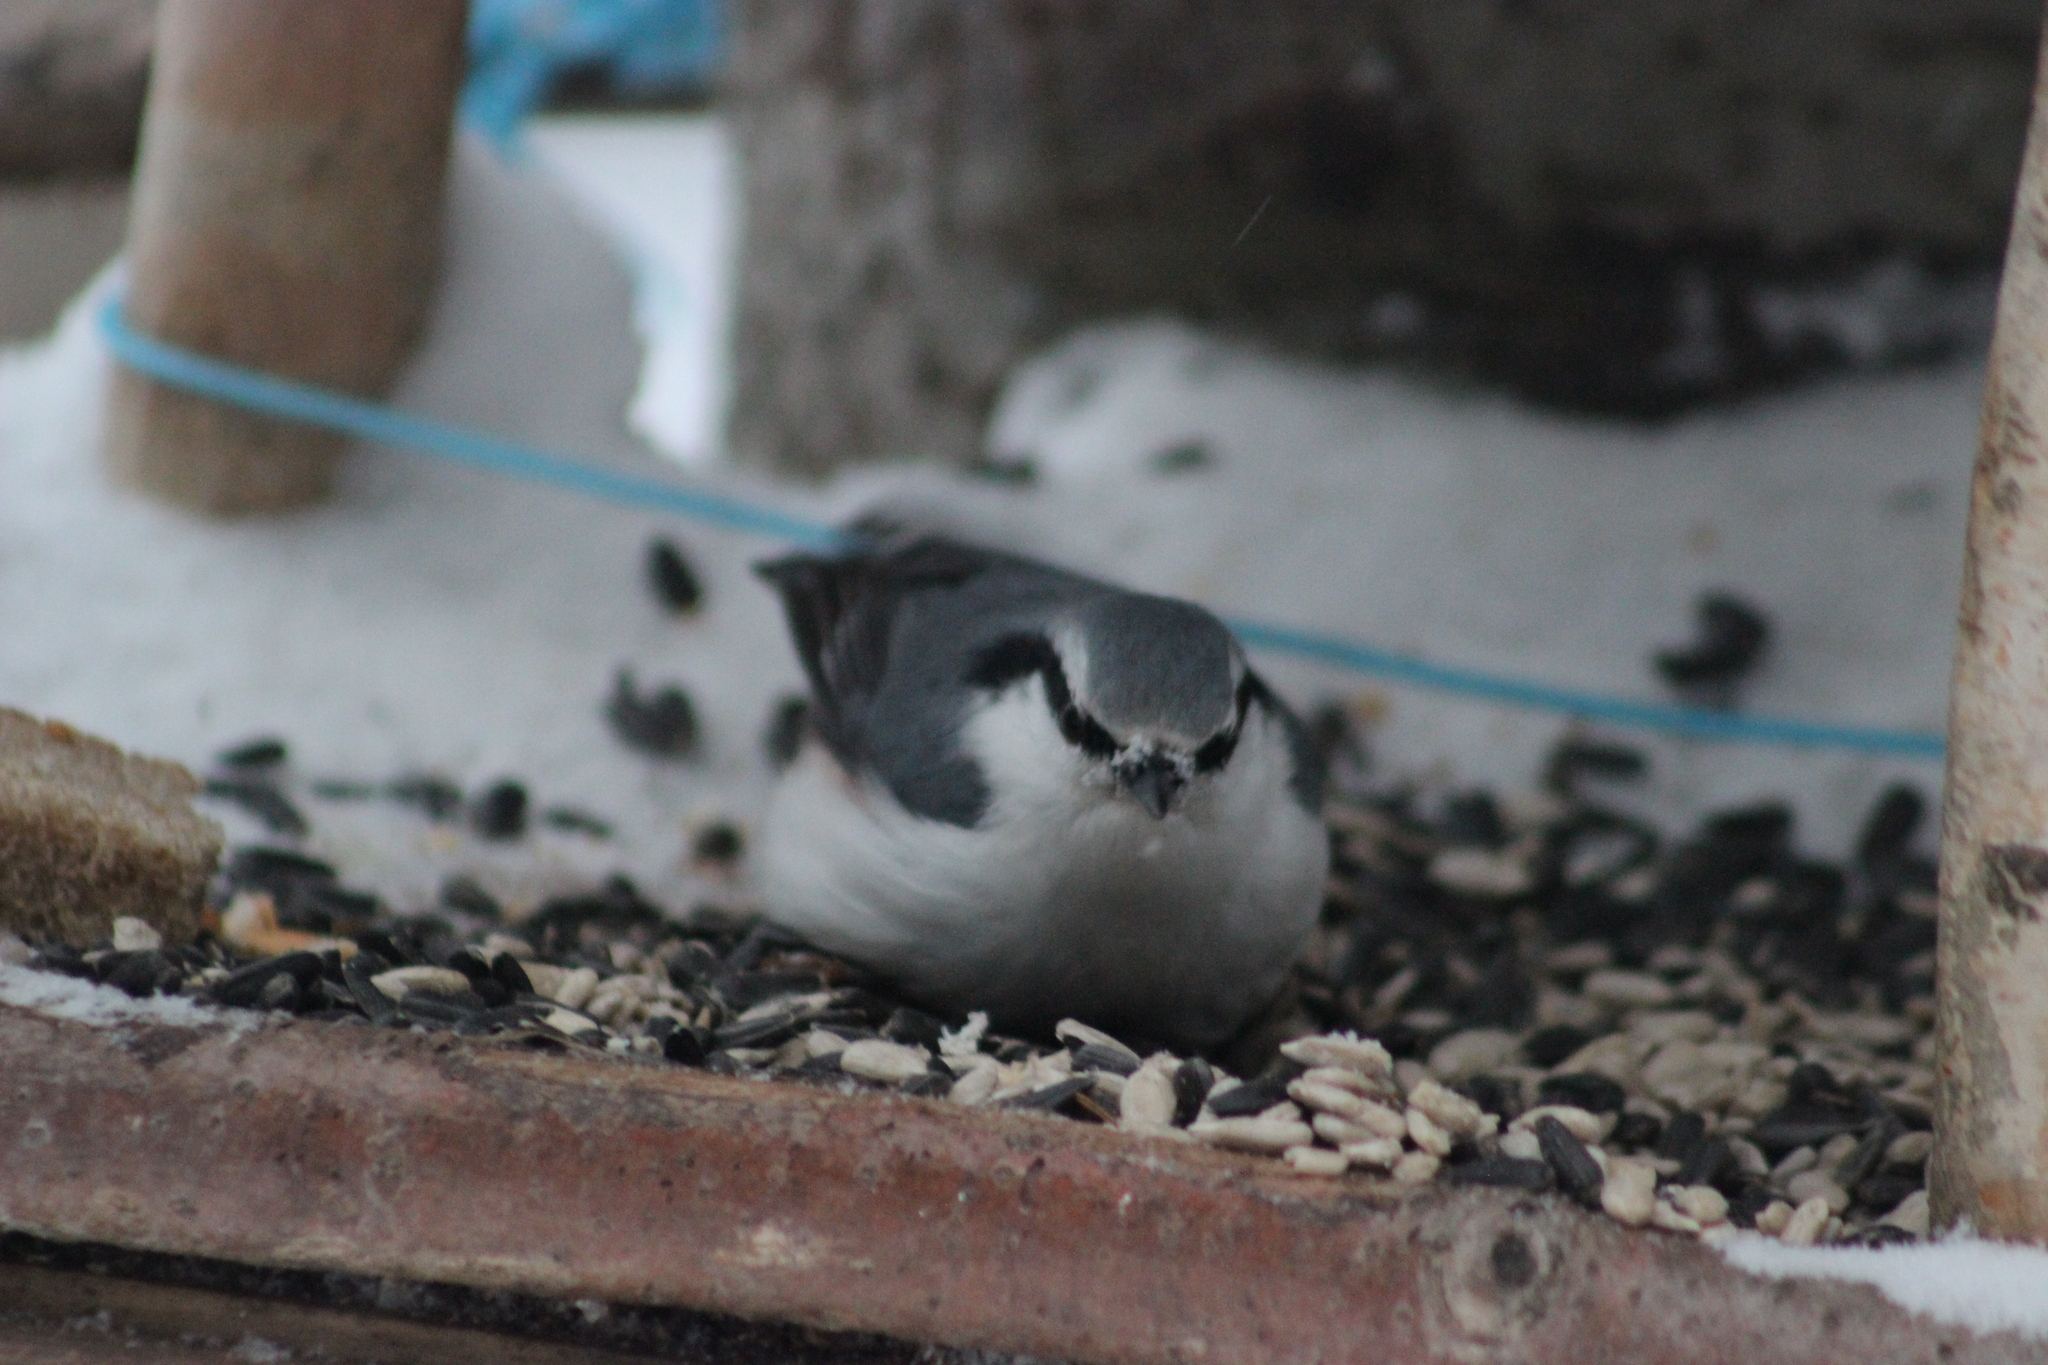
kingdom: Animalia
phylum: Chordata
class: Aves
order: Passeriformes
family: Sittidae
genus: Sitta
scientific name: Sitta europaea
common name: Eurasian nuthatch
